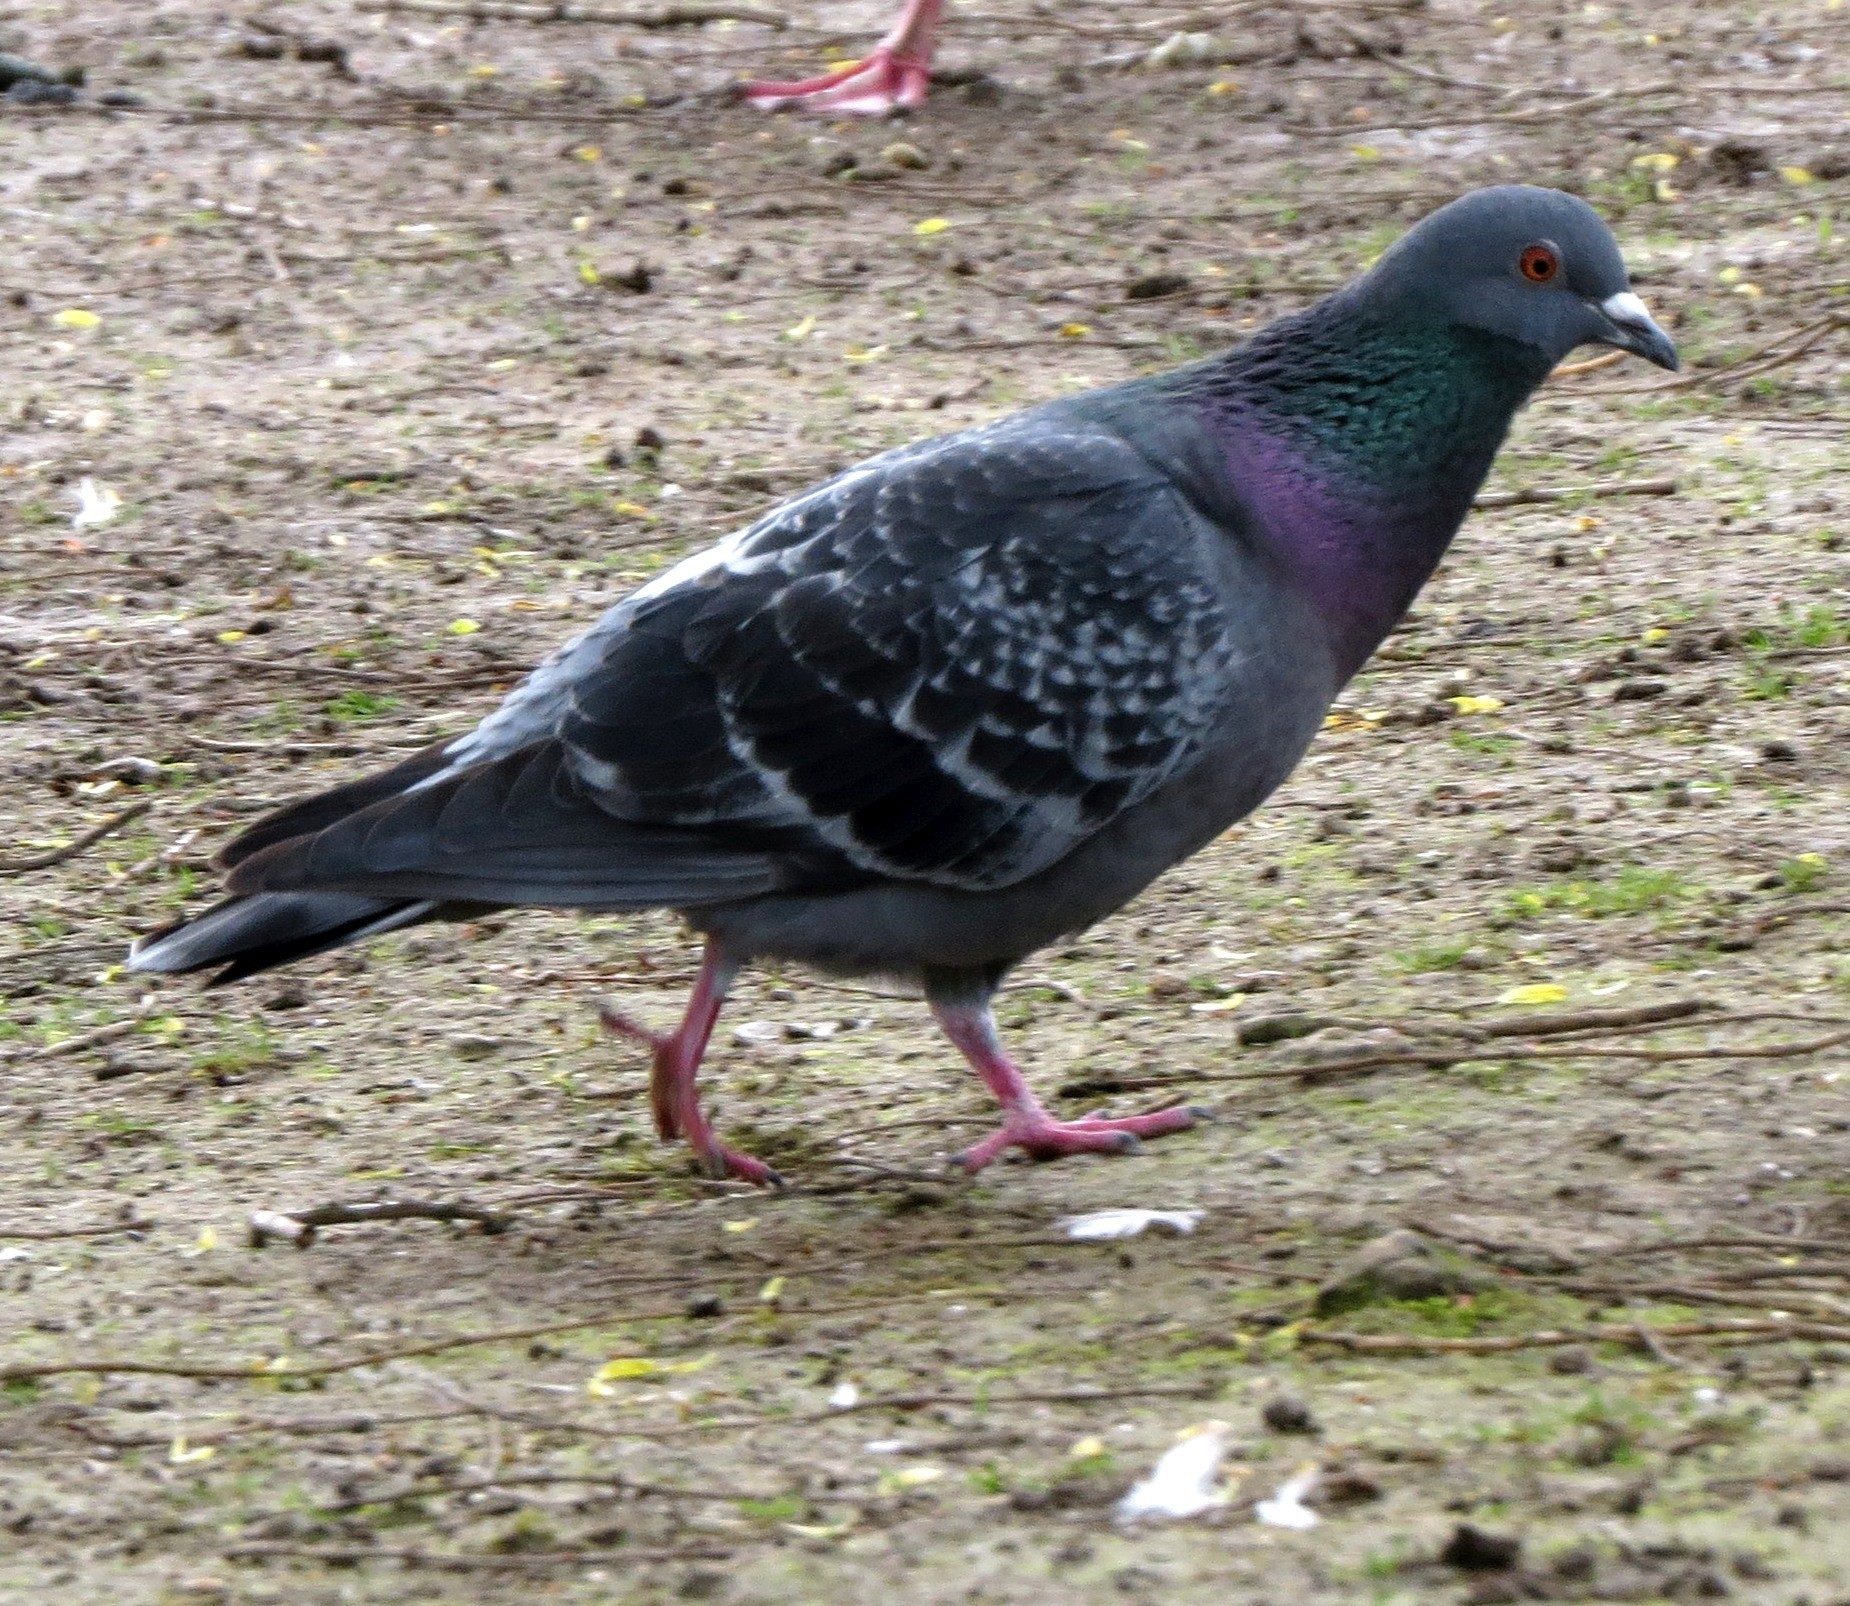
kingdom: Animalia
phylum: Chordata
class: Aves
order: Columbiformes
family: Columbidae
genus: Columba
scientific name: Columba livia
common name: Rock pigeon
